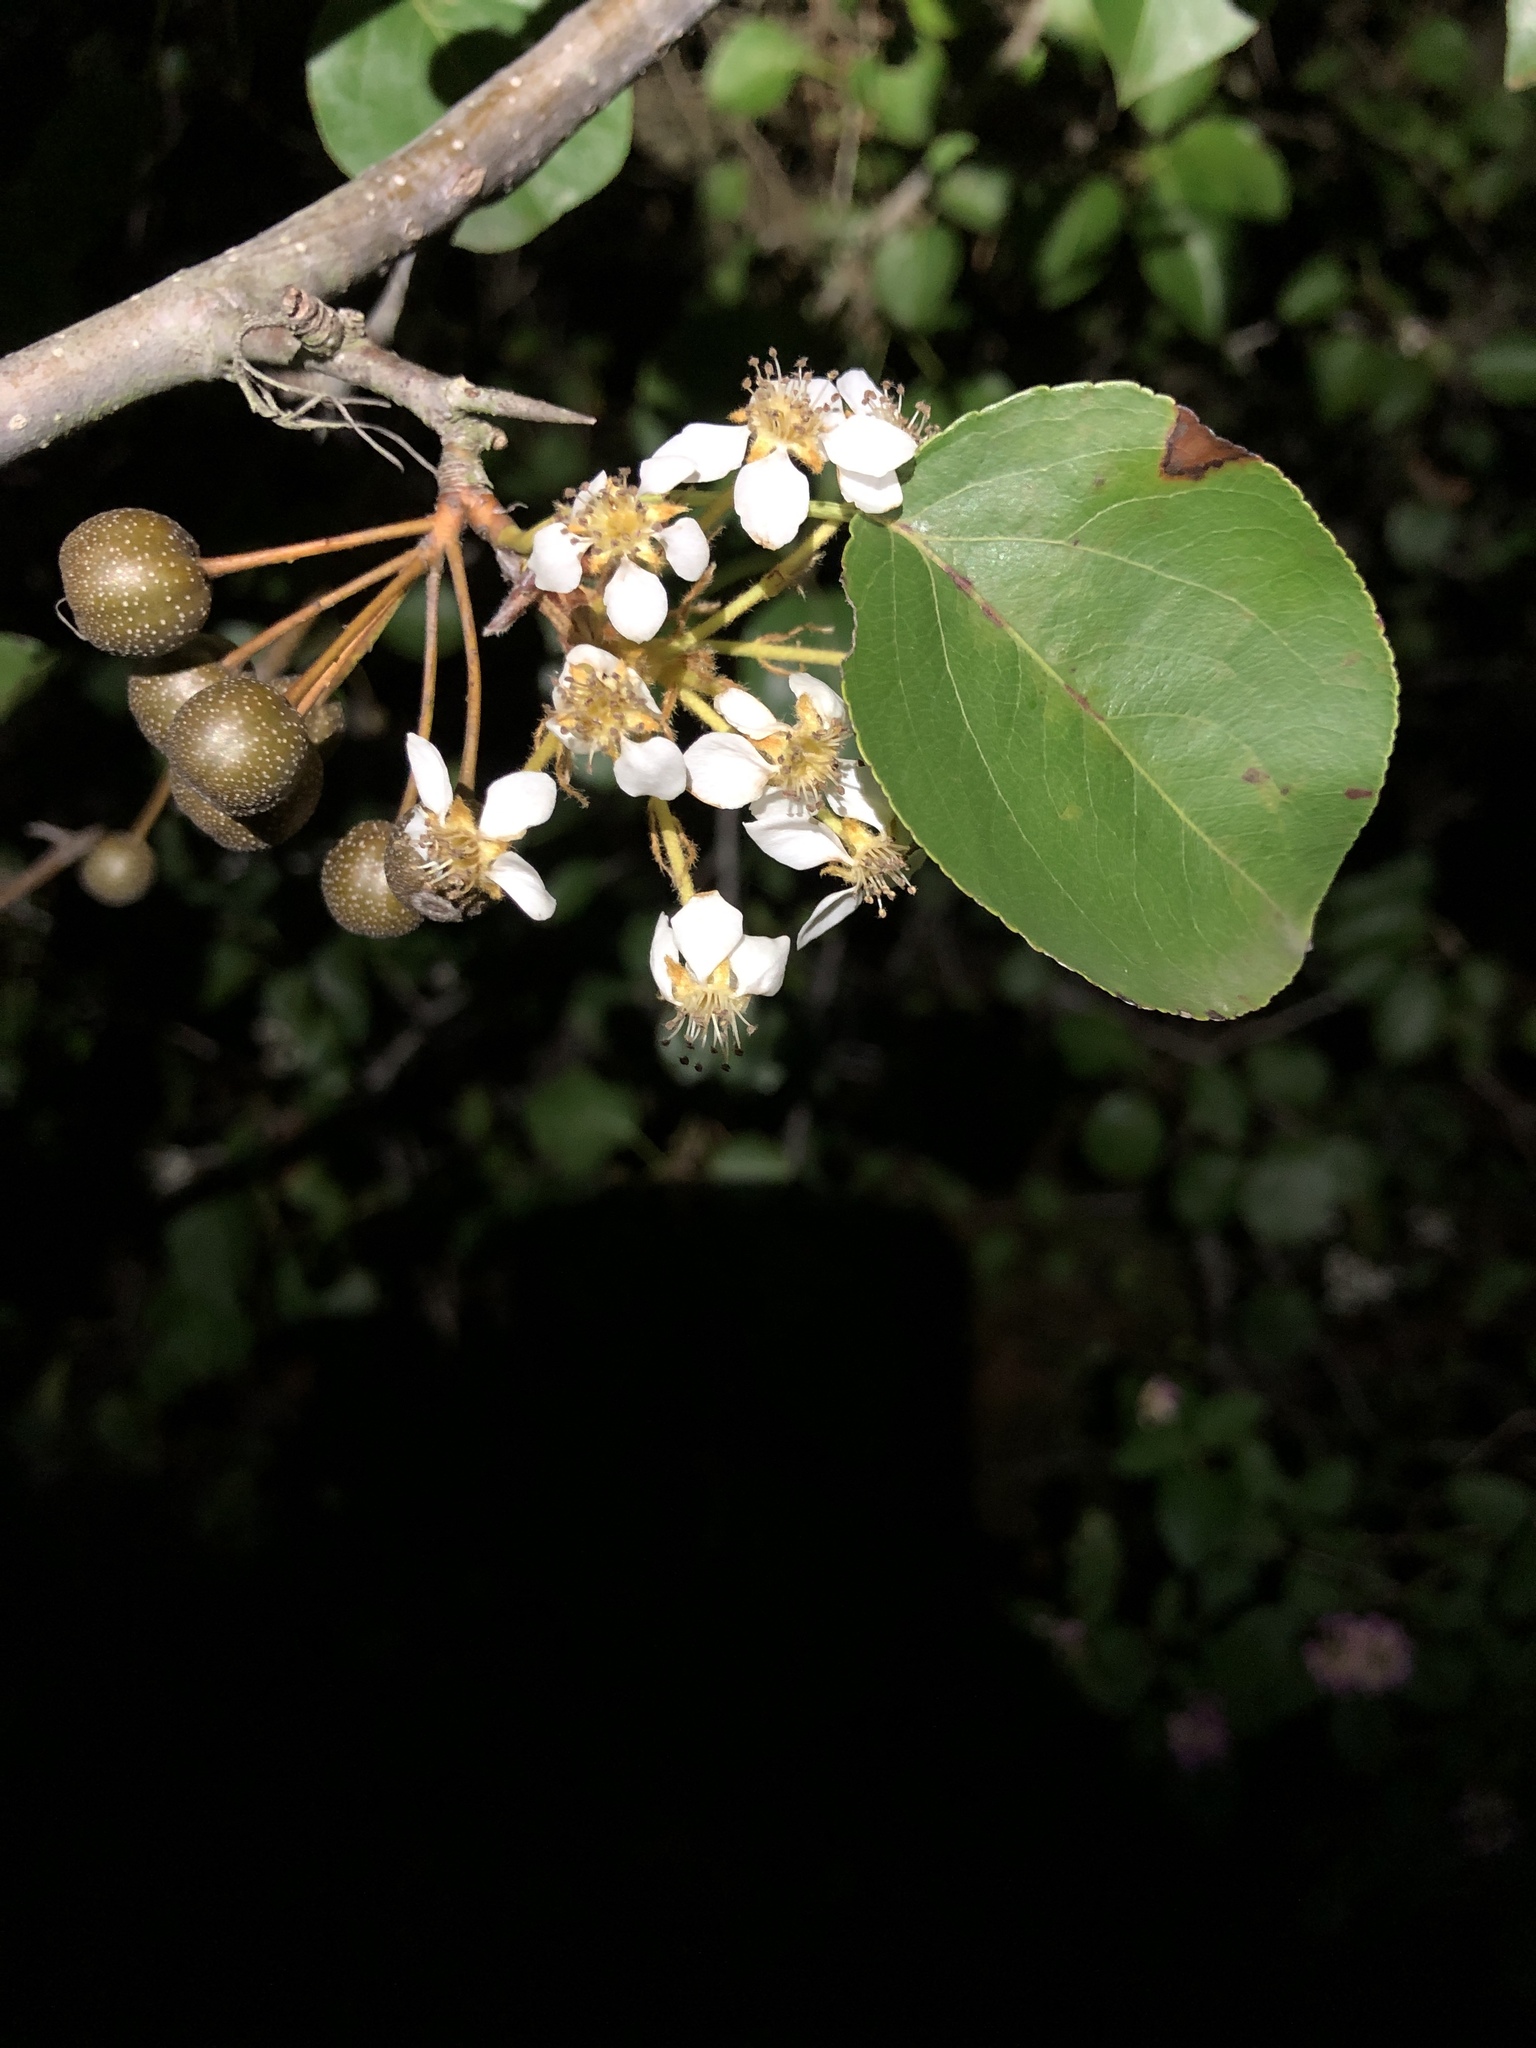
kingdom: Plantae
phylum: Tracheophyta
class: Magnoliopsida
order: Rosales
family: Rosaceae
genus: Pyrus
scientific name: Pyrus calleryana
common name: Callery pear
